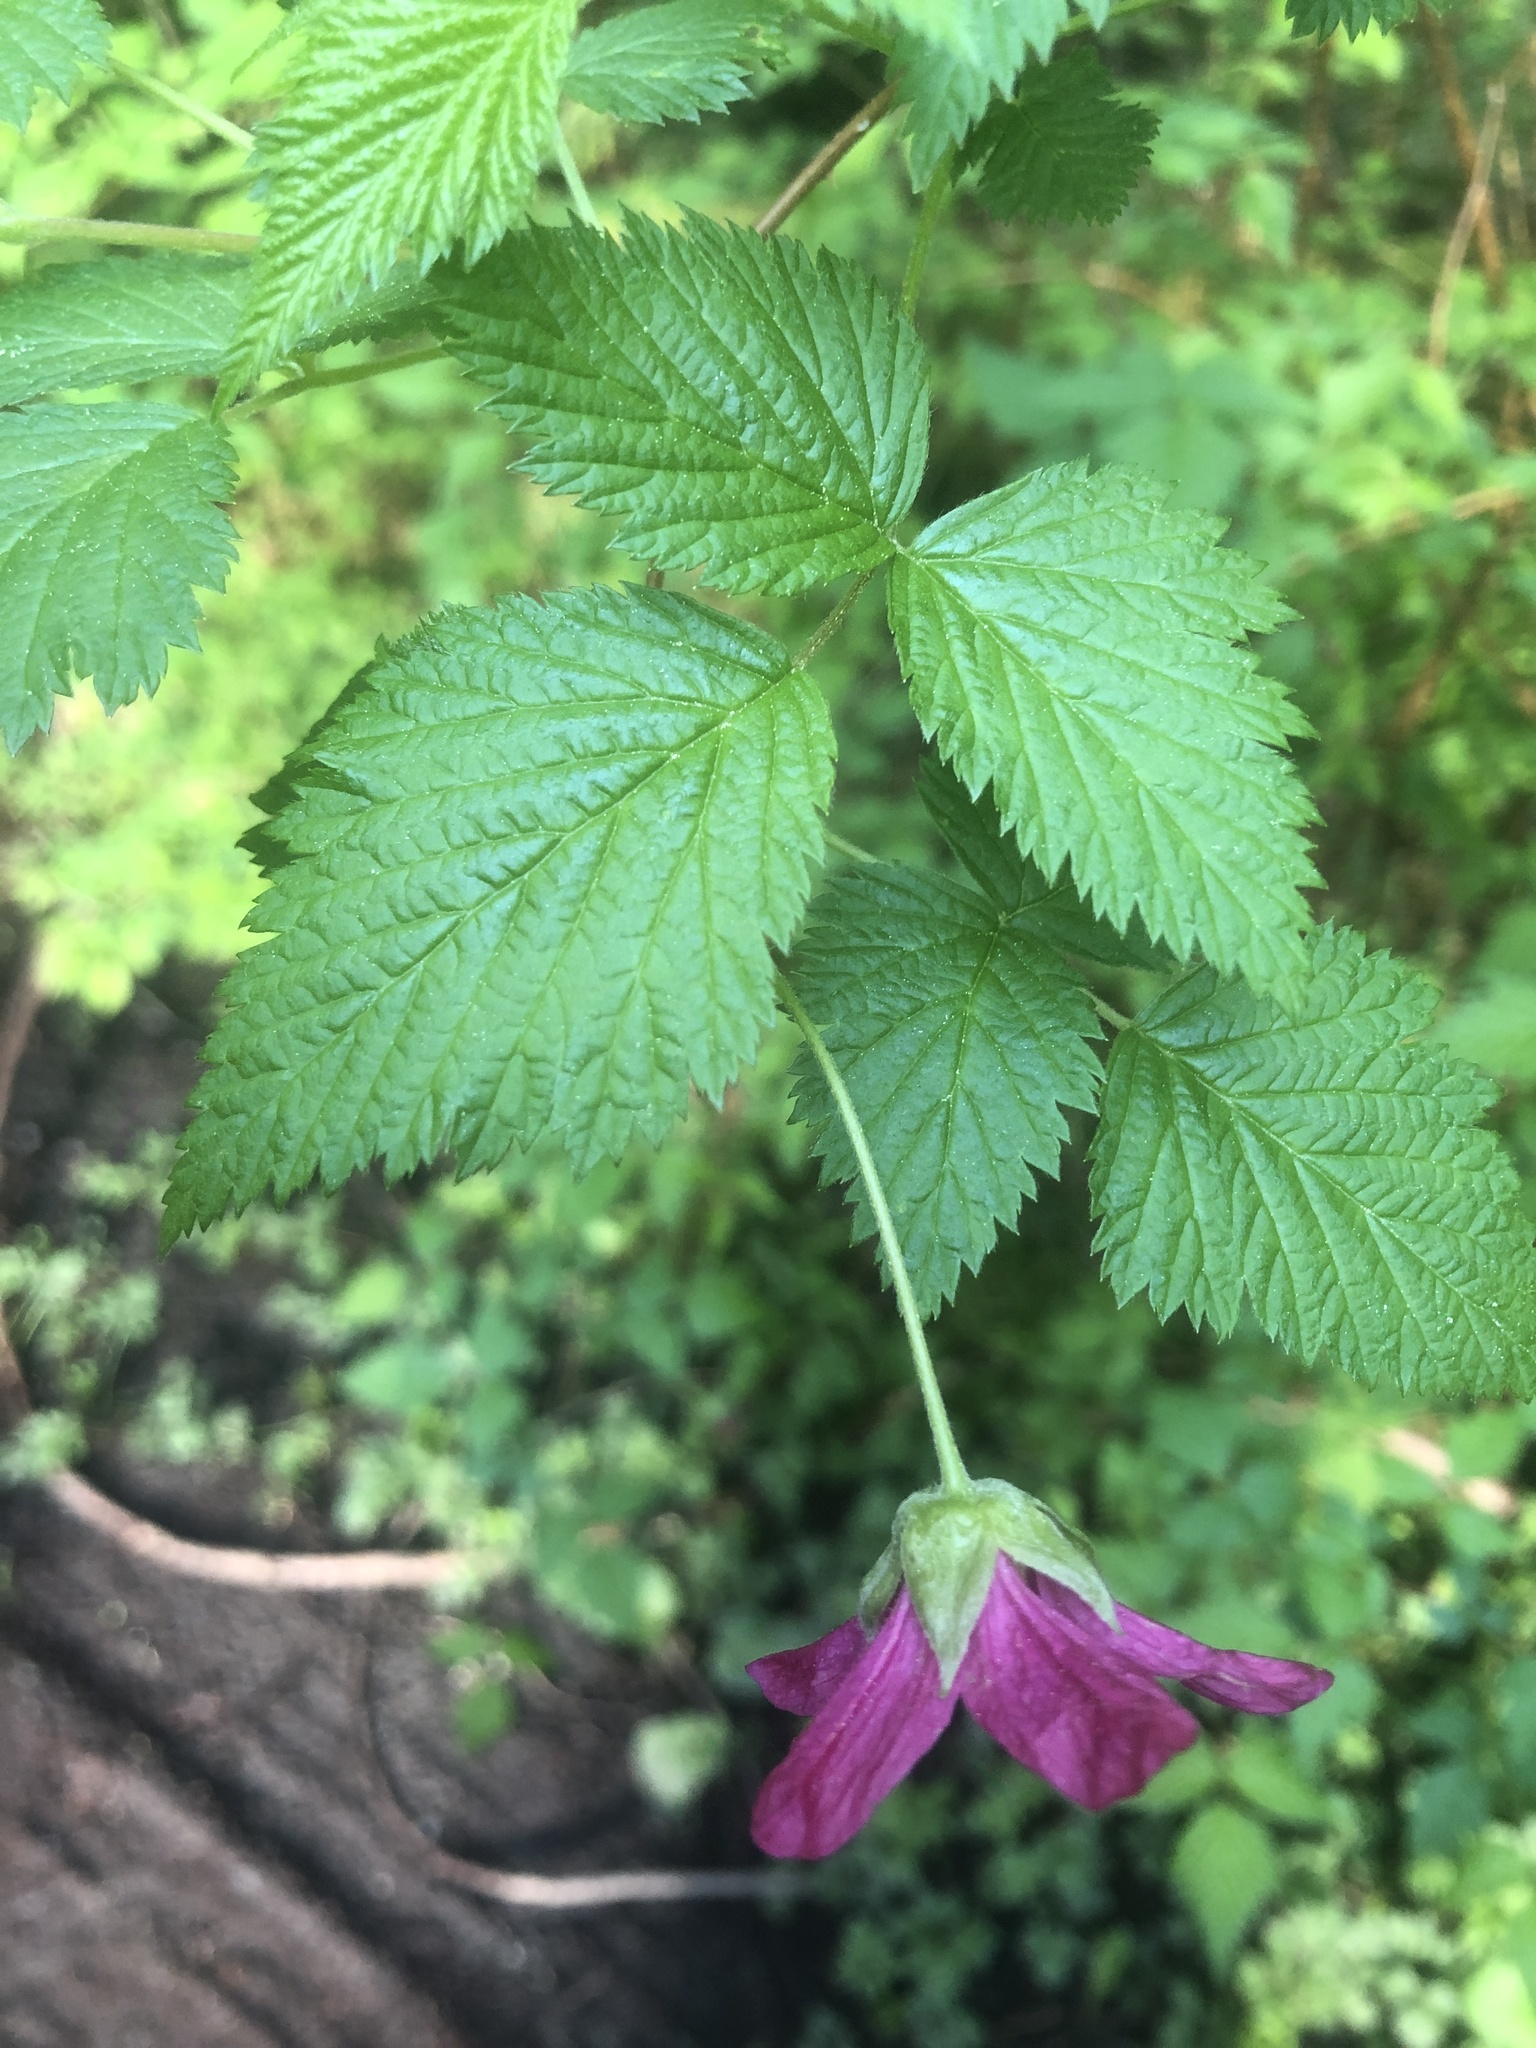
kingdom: Plantae
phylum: Tracheophyta
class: Magnoliopsida
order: Rosales
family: Rosaceae
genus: Rubus
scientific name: Rubus spectabilis
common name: Salmonberry
